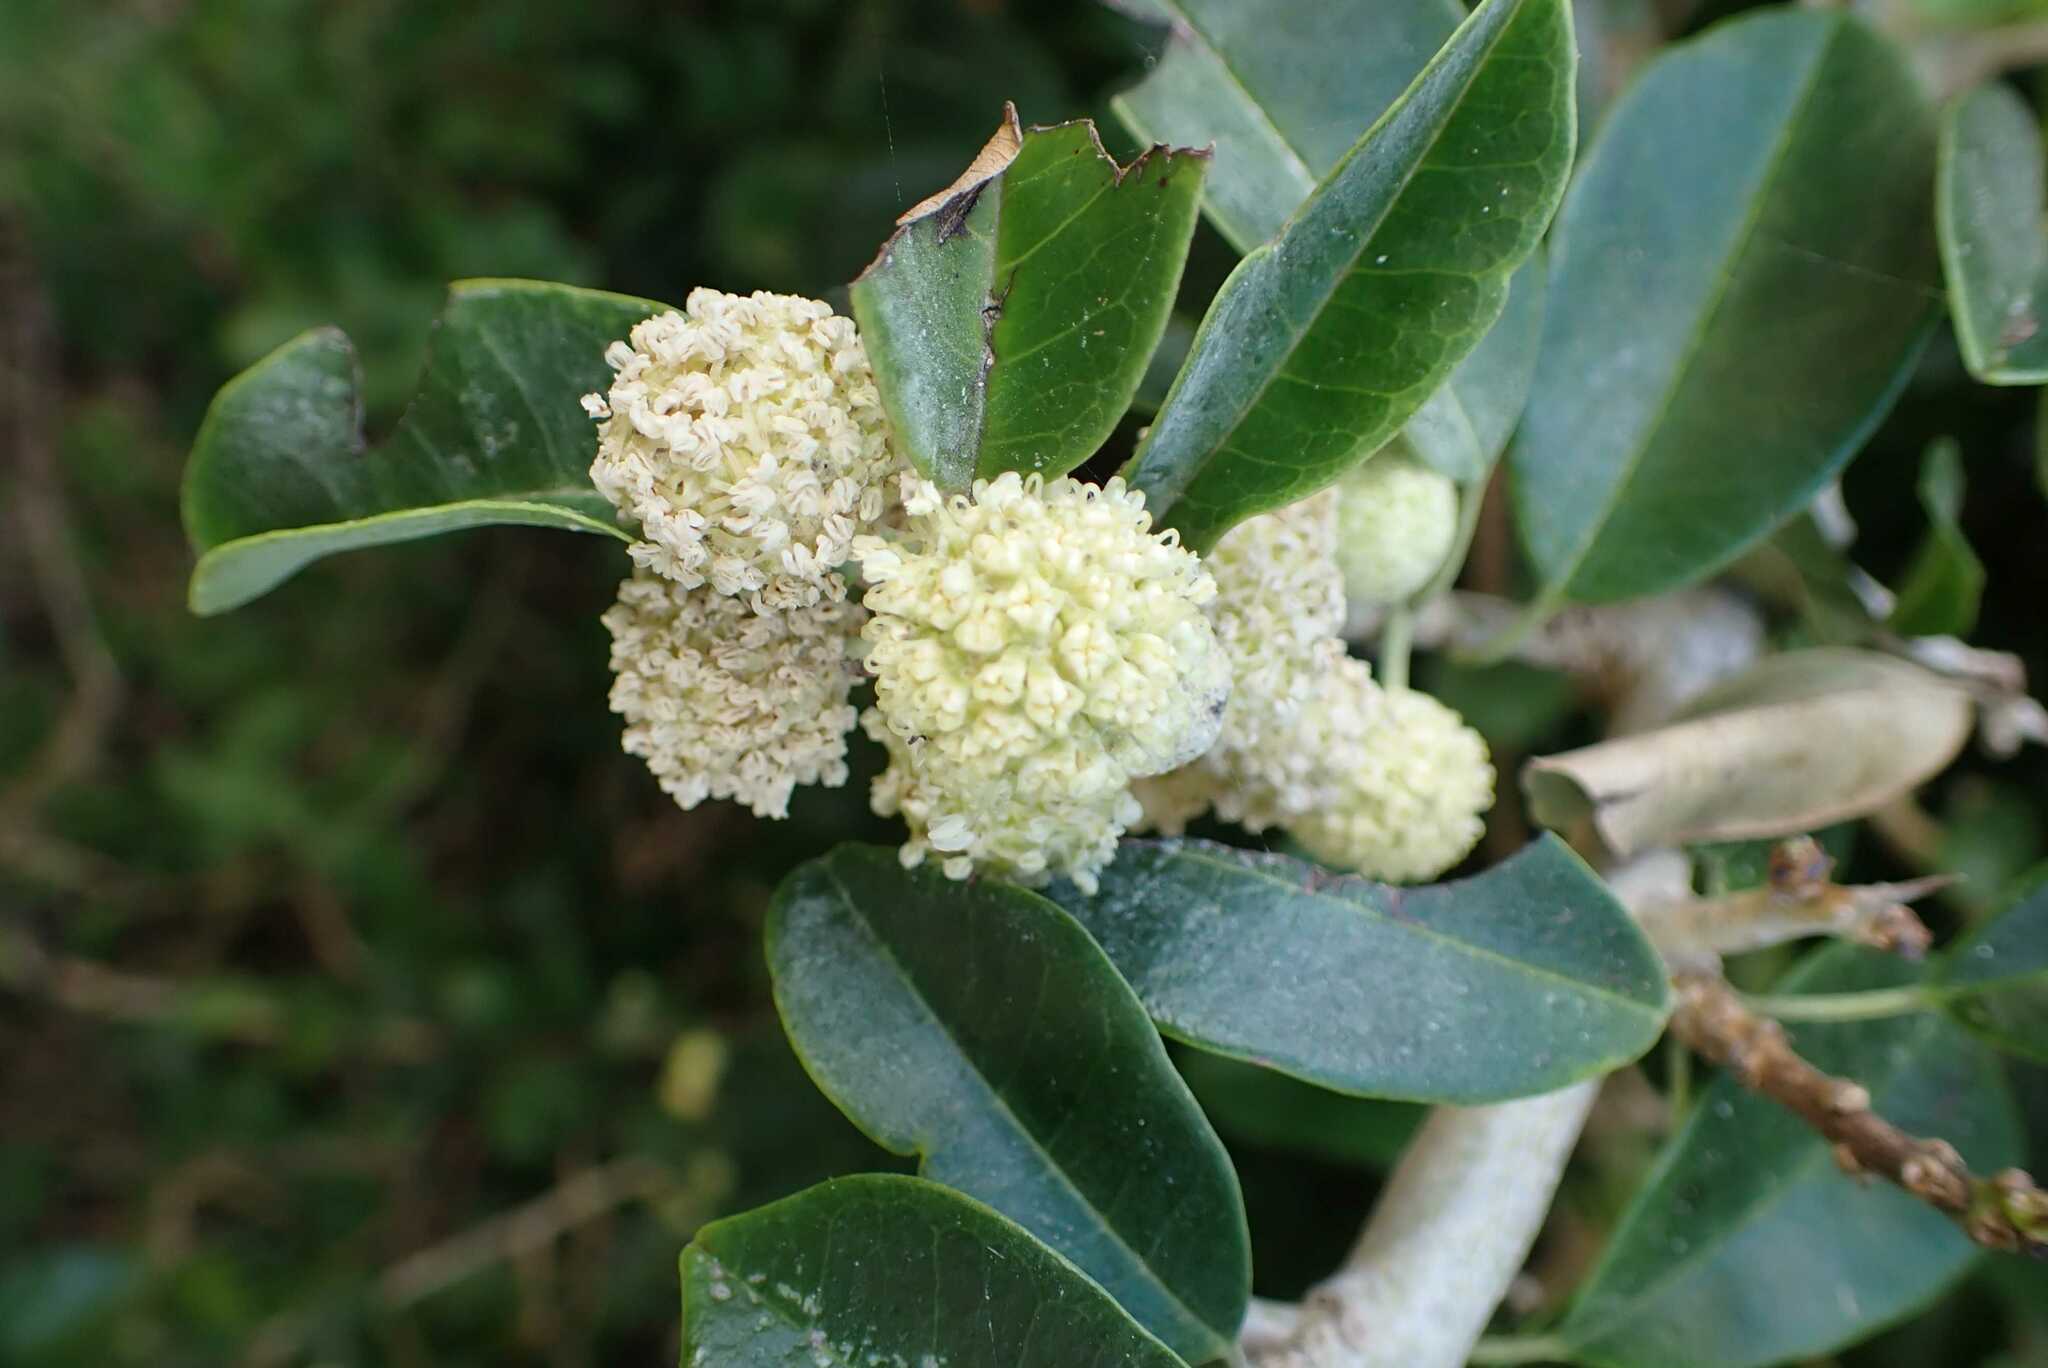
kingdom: Plantae
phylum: Tracheophyta
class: Magnoliopsida
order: Rosales
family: Moraceae
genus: Maclura
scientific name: Maclura africana
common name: African osage orange
